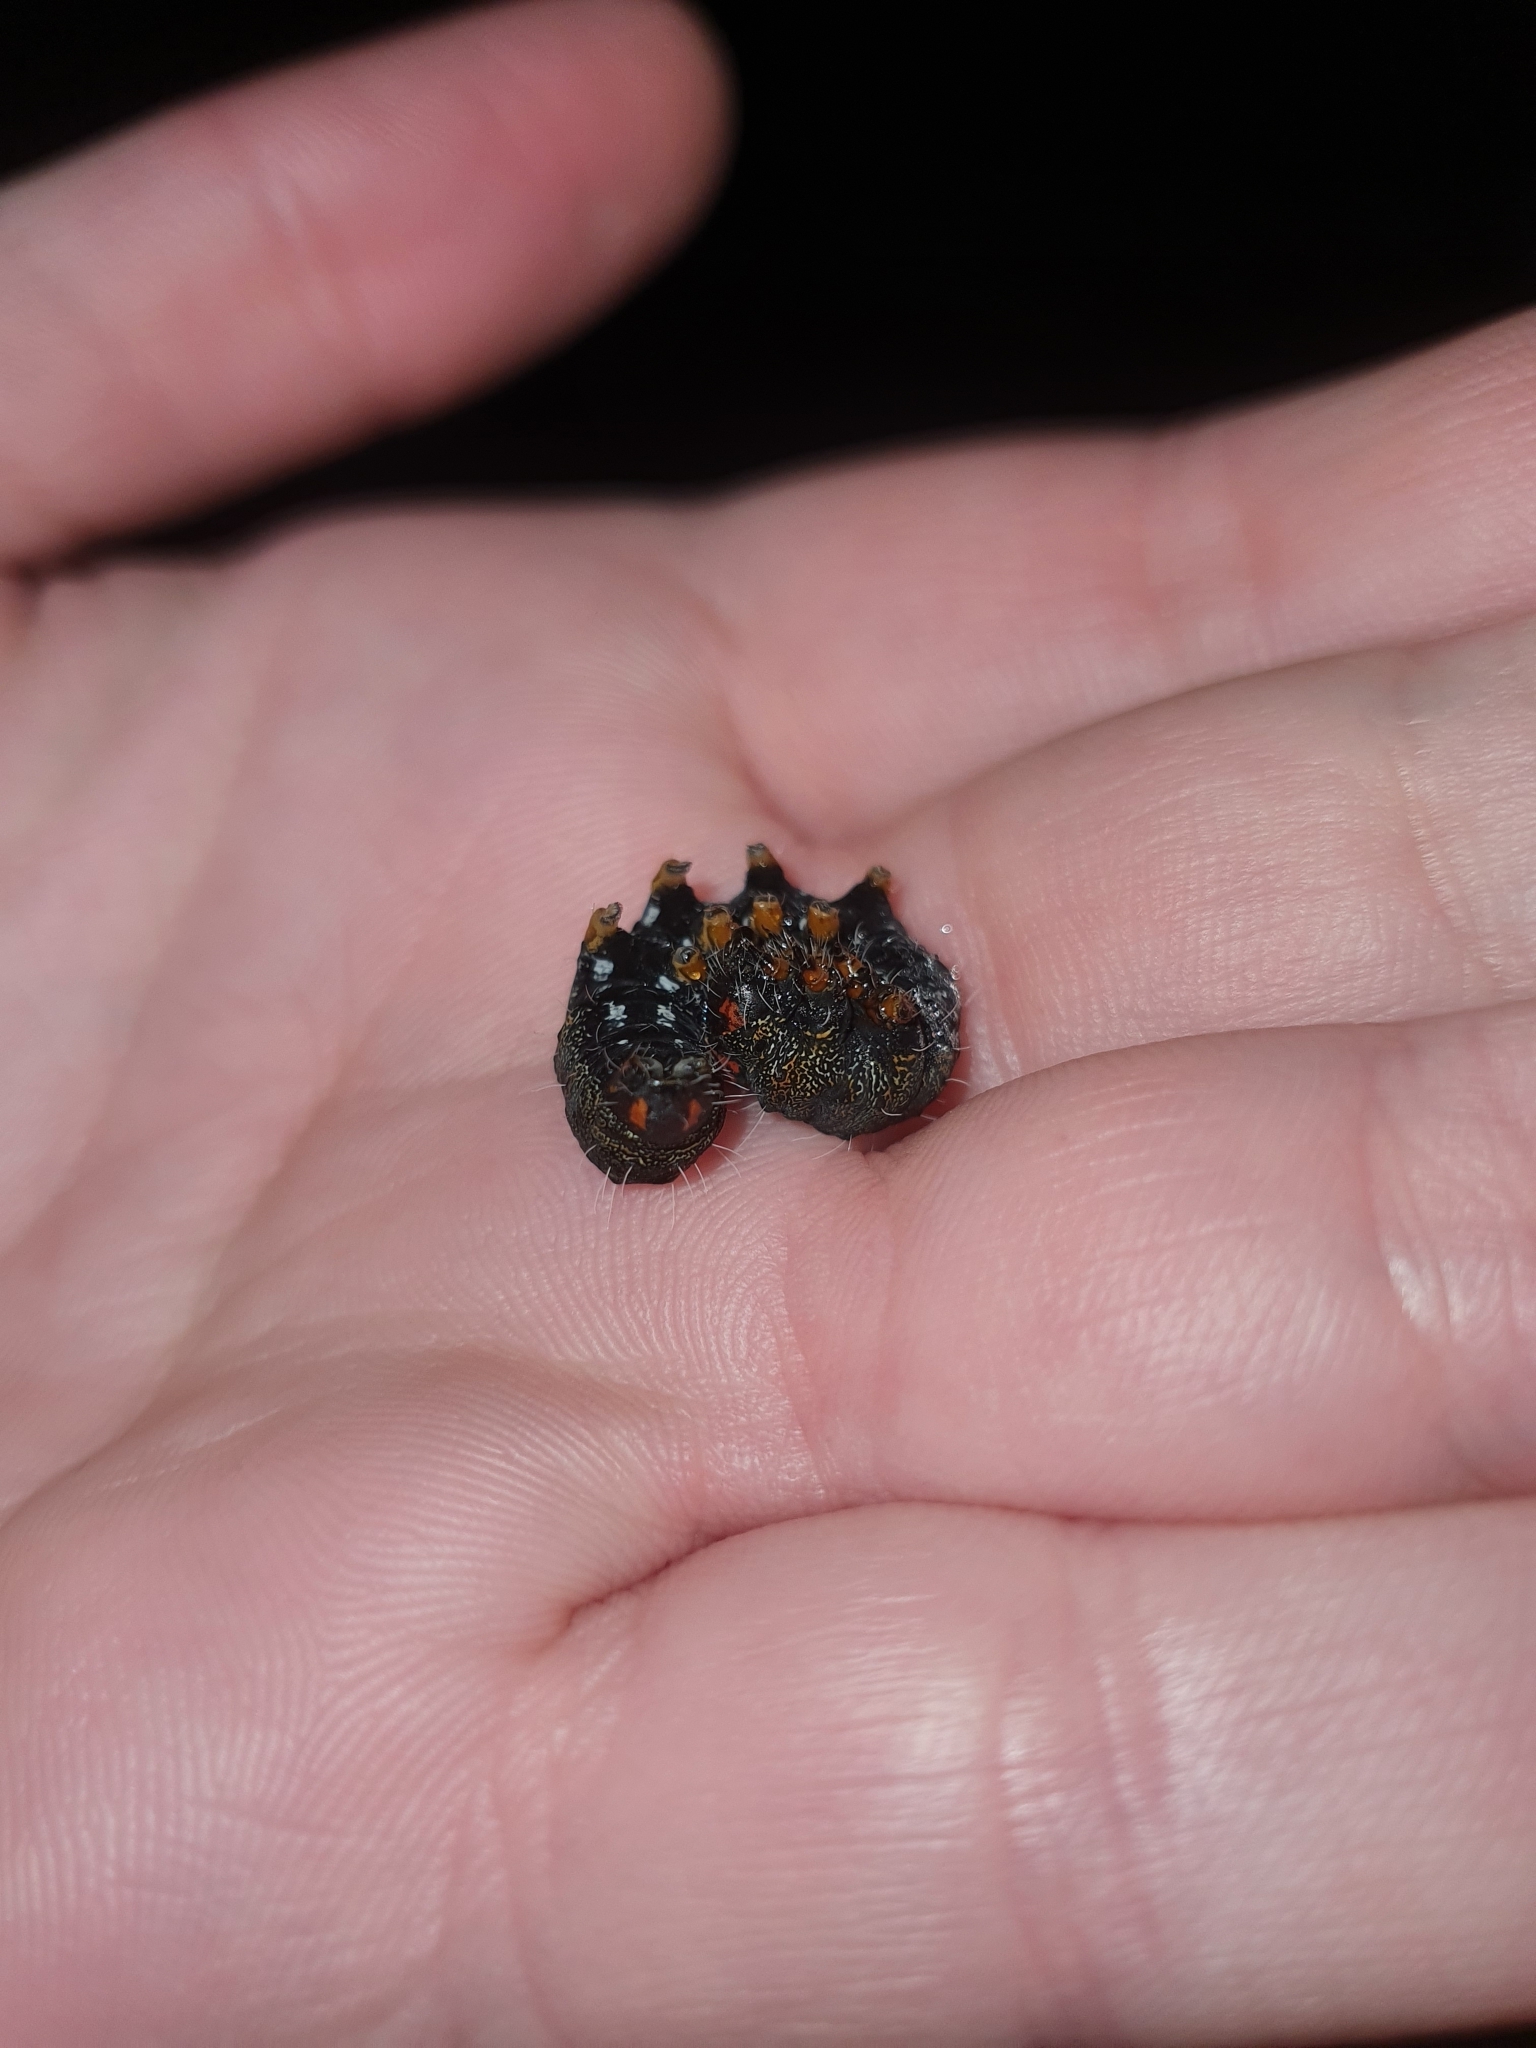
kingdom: Animalia
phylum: Arthropoda
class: Insecta
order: Lepidoptera
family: Noctuidae
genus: Apina
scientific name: Apina callisto
